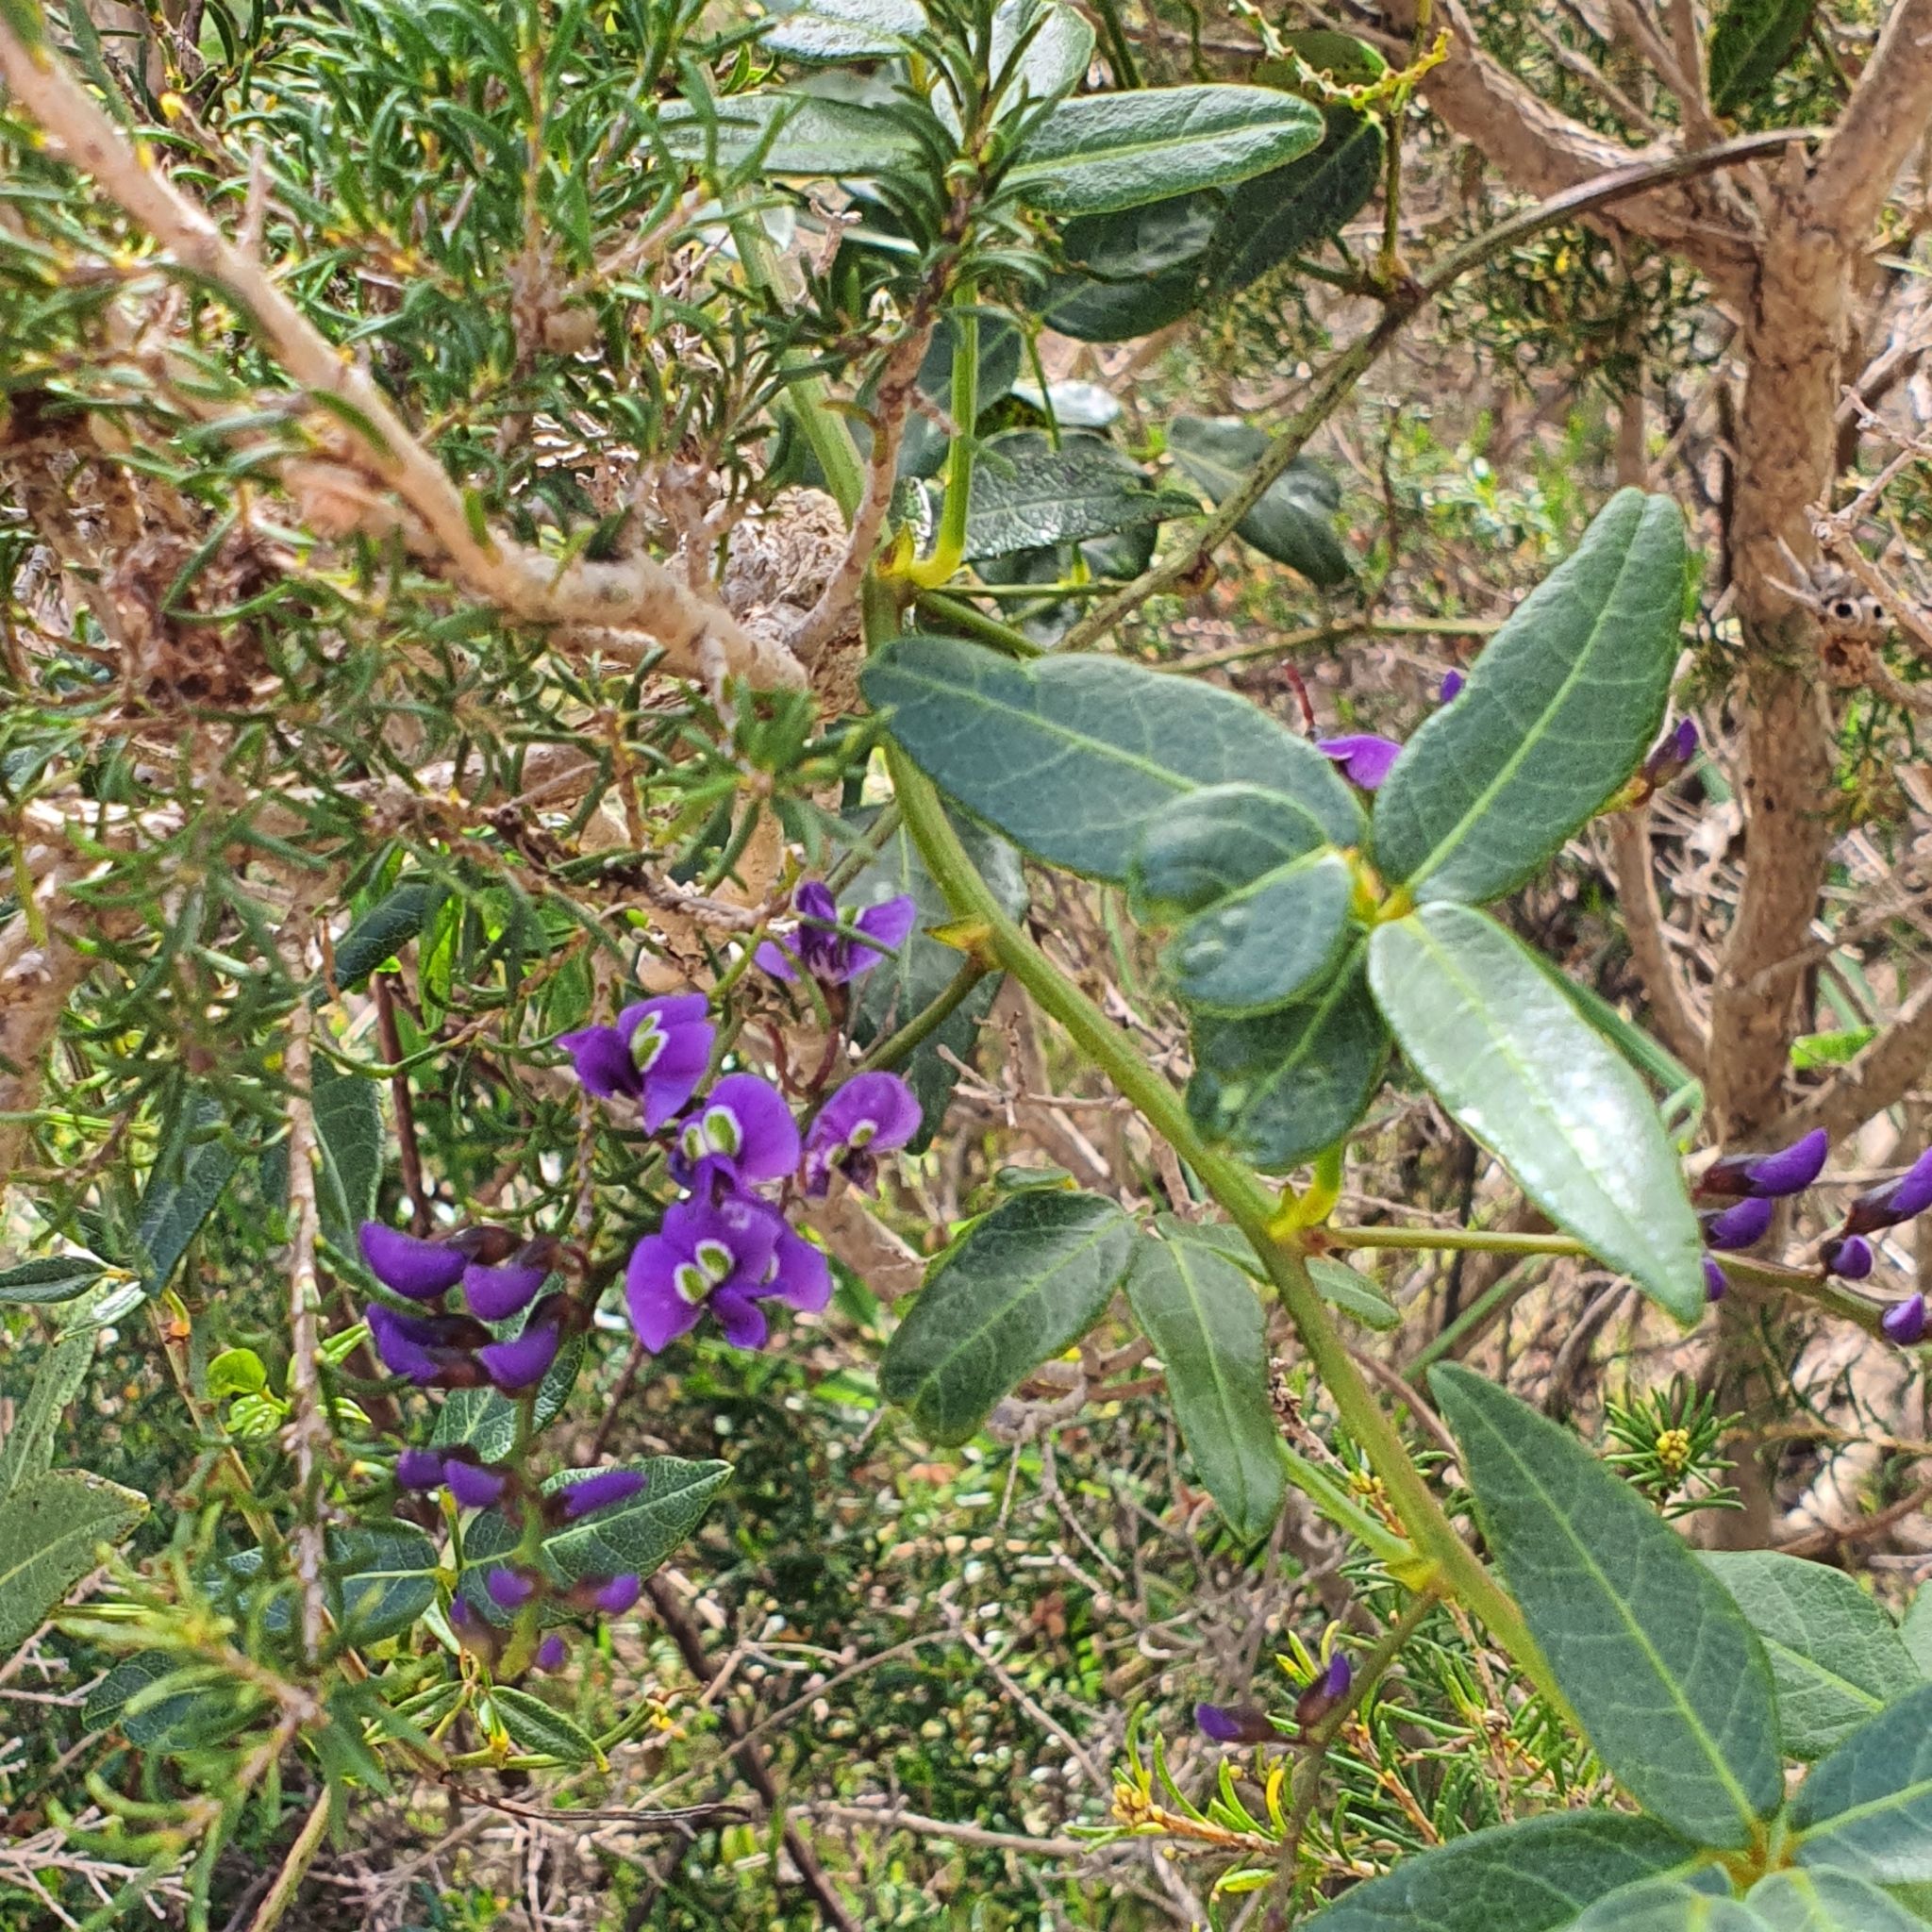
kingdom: Plantae
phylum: Tracheophyta
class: Magnoliopsida
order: Fabales
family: Fabaceae
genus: Hardenbergia
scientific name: Hardenbergia comptoniana
